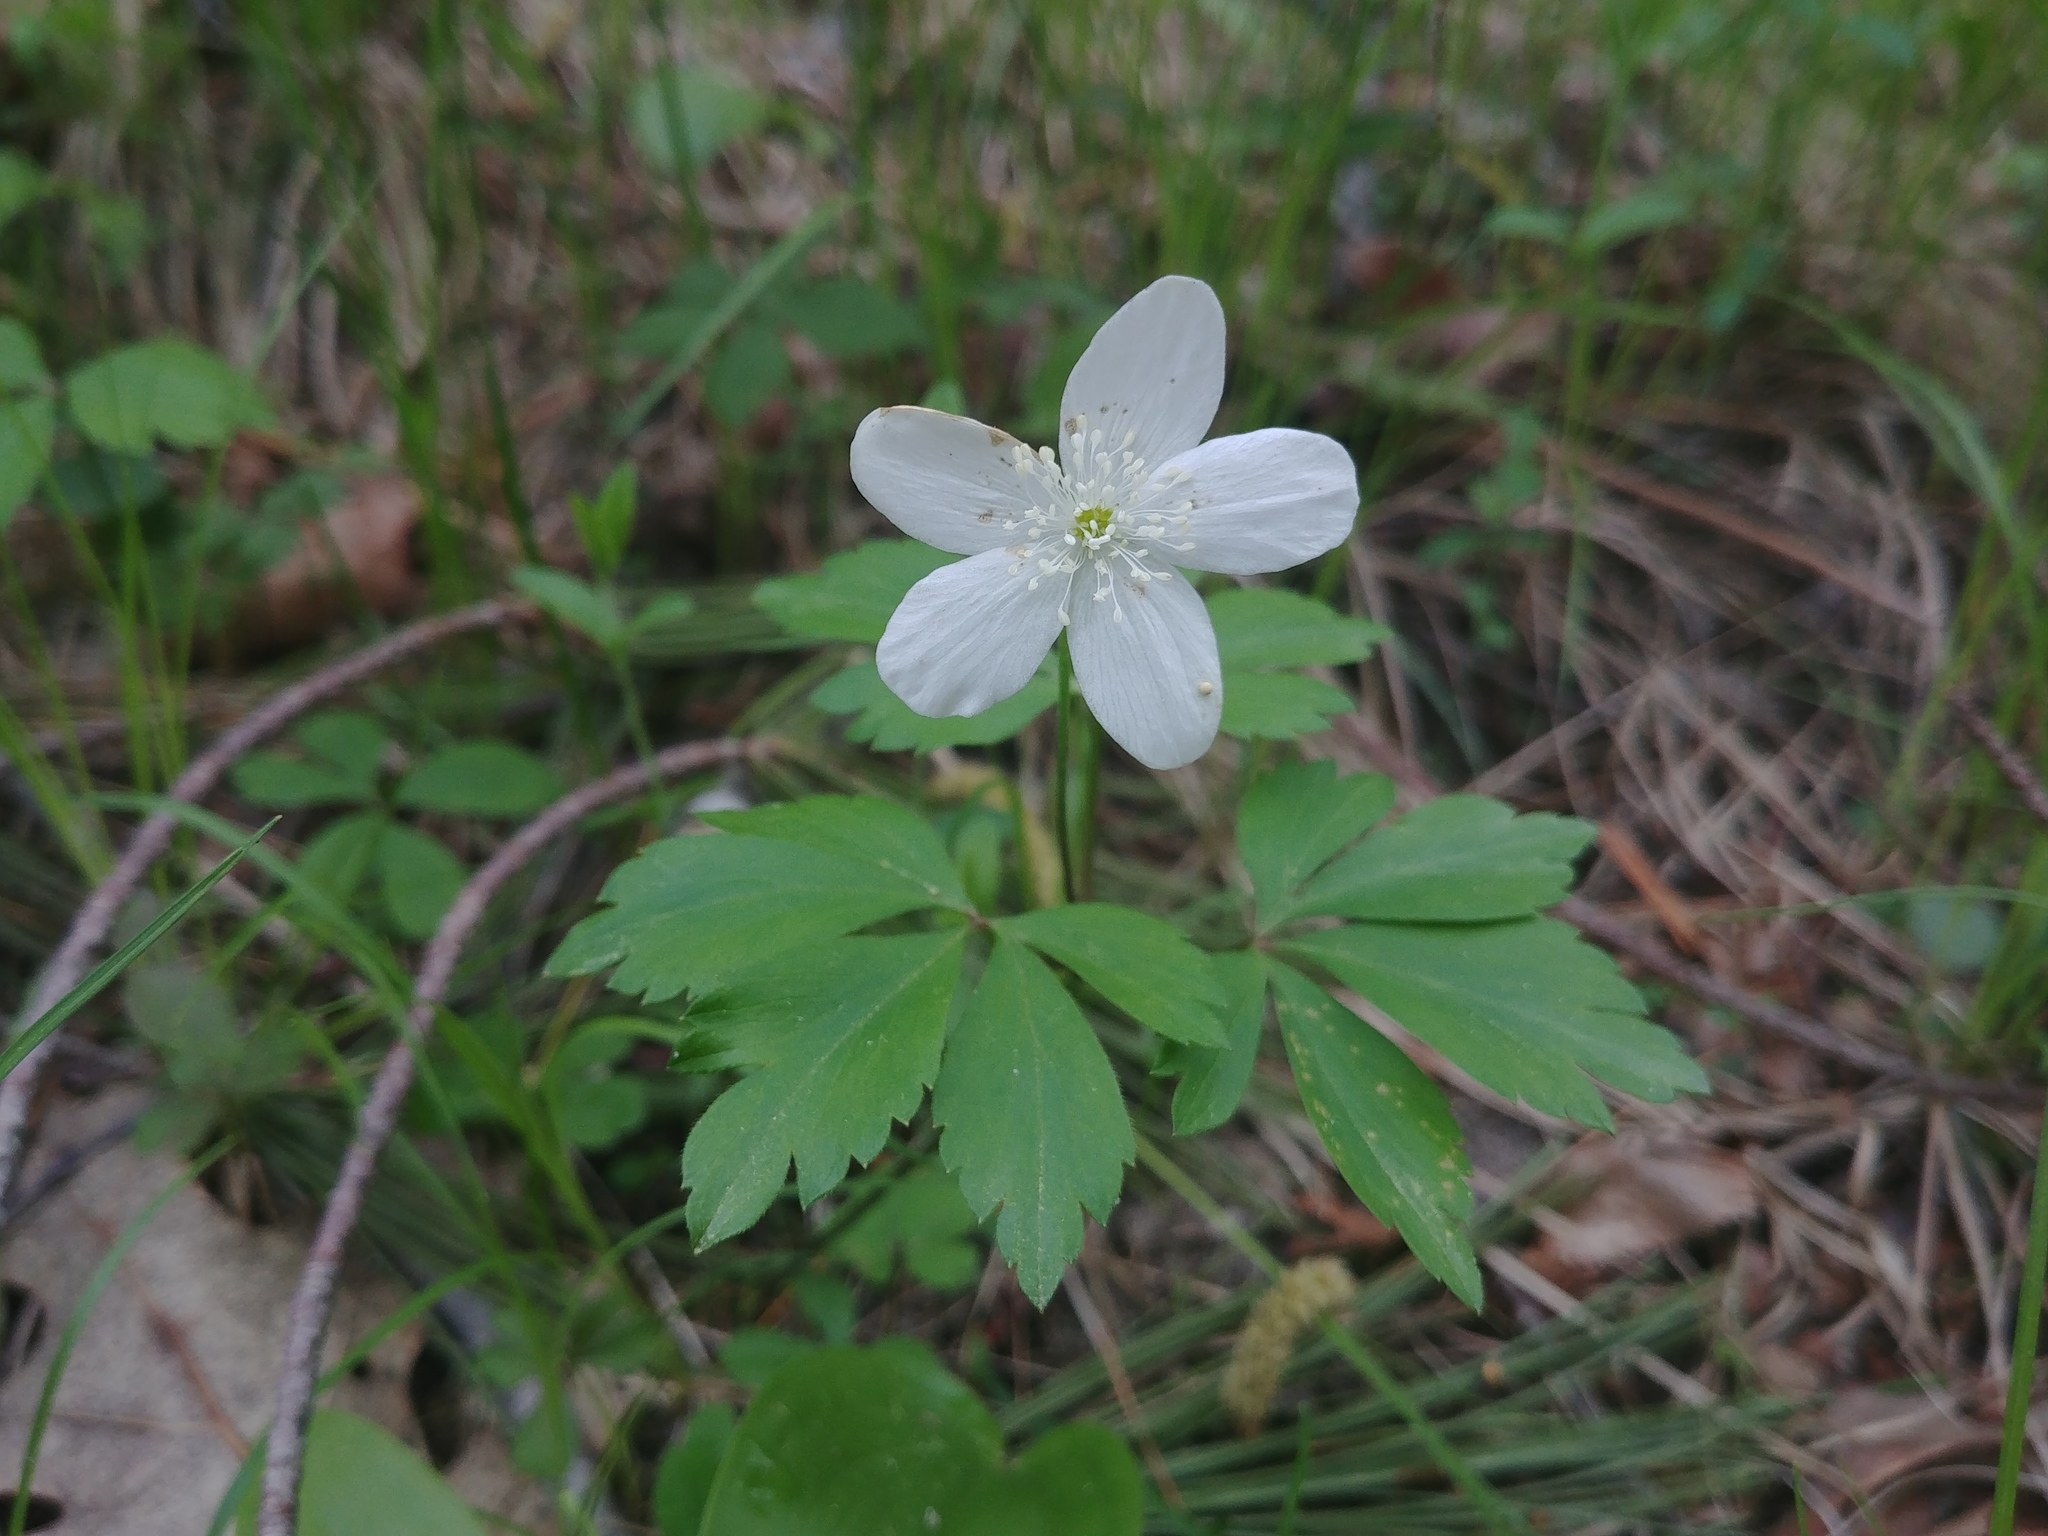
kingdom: Plantae
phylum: Tracheophyta
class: Magnoliopsida
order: Ranunculales
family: Ranunculaceae
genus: Anemone
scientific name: Anemone quinquefolia
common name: Wood anemone
